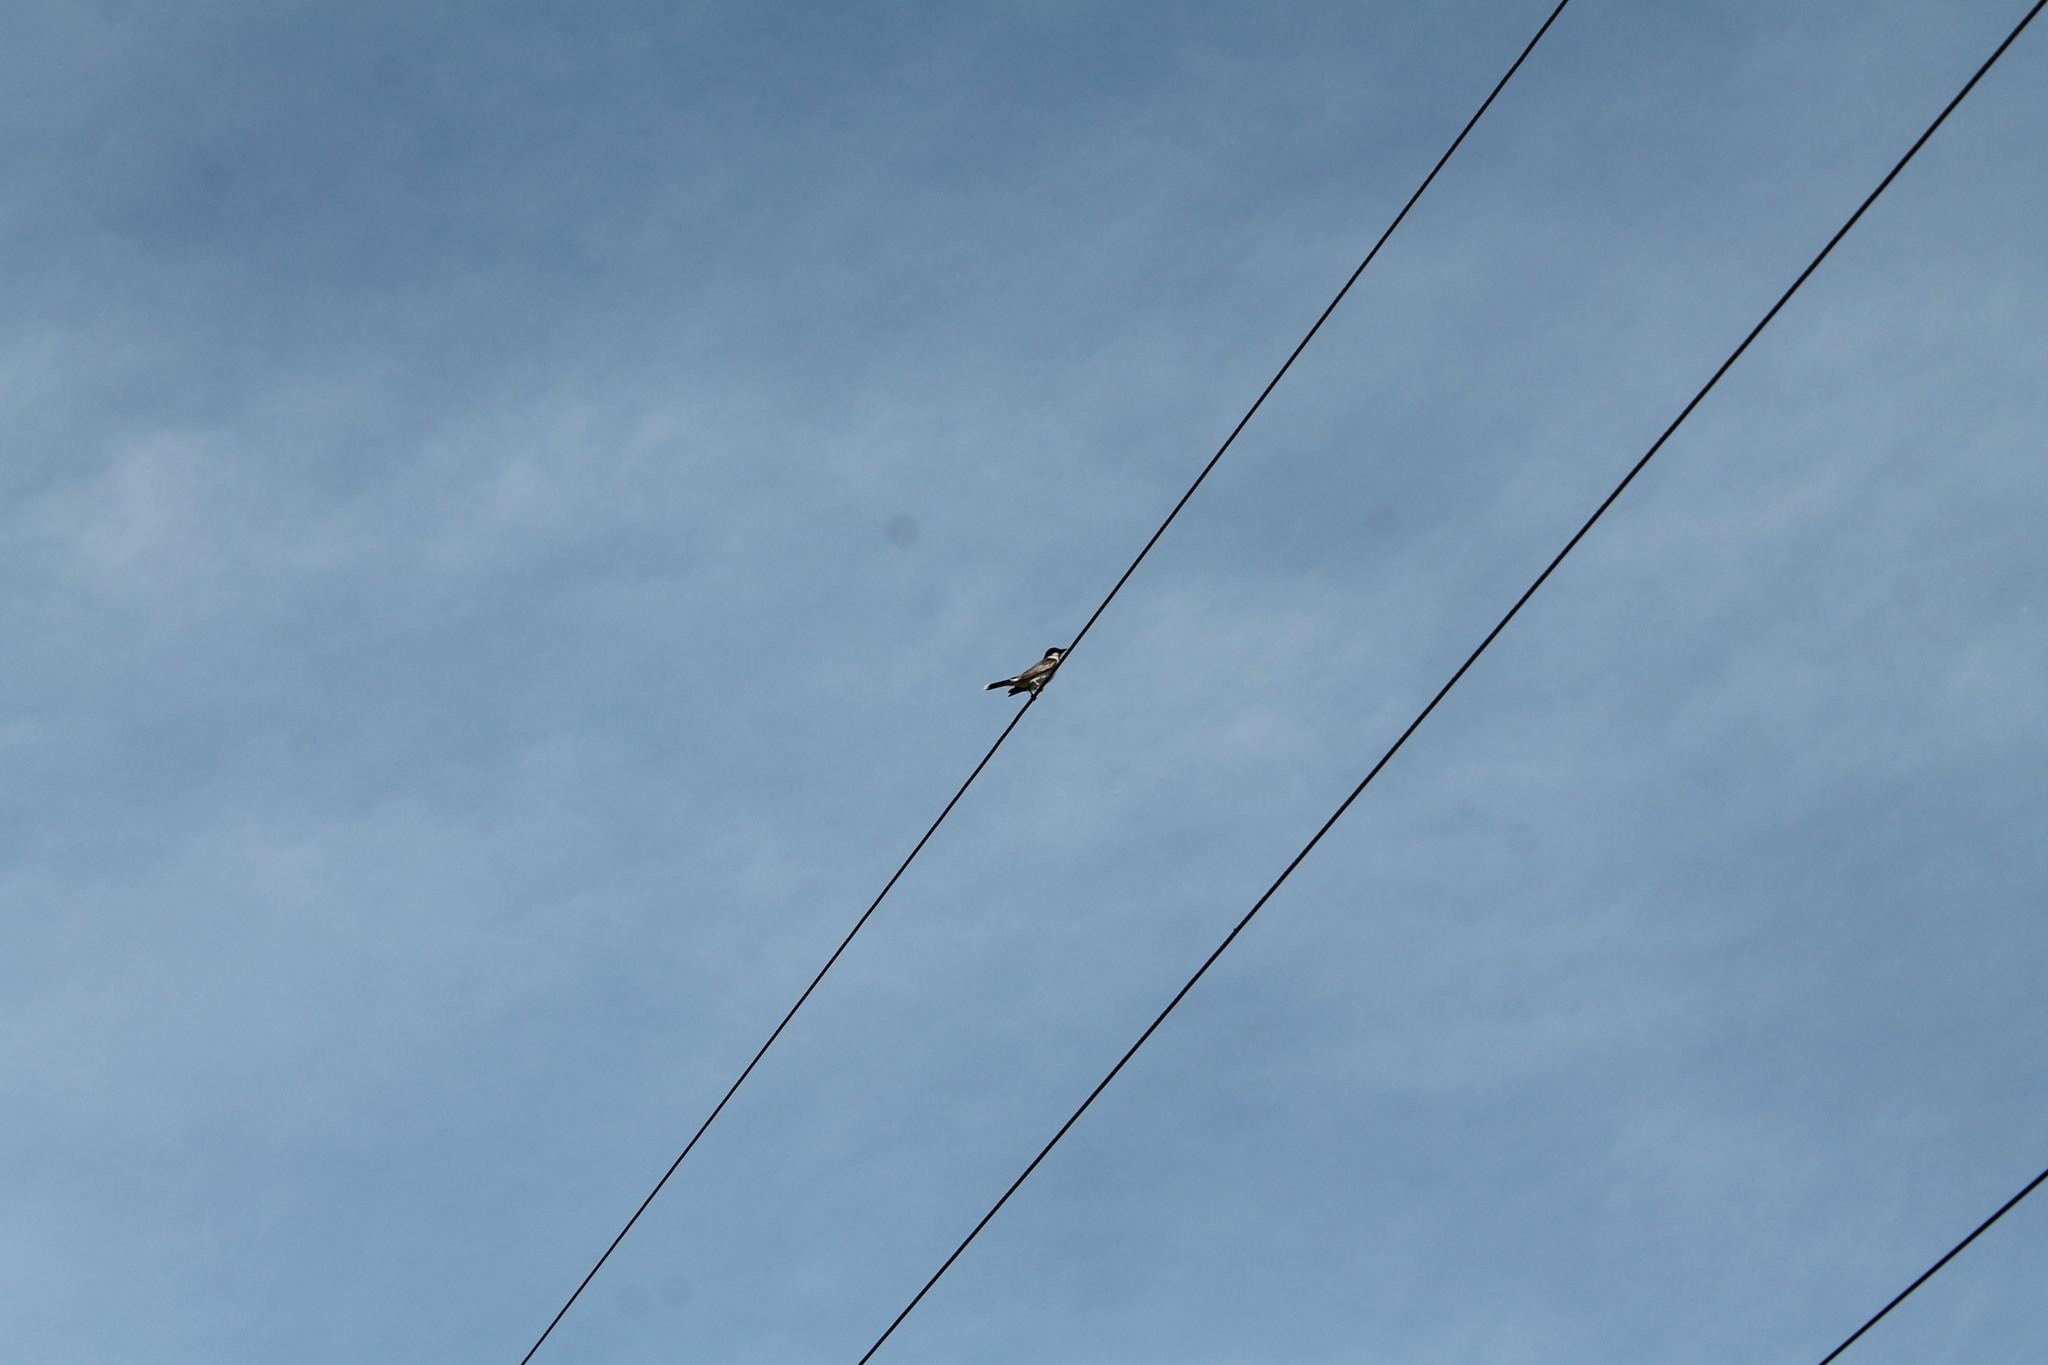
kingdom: Animalia
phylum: Chordata
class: Aves
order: Passeriformes
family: Tyrannidae
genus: Tyrannus
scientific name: Tyrannus tyrannus
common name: Eastern kingbird
